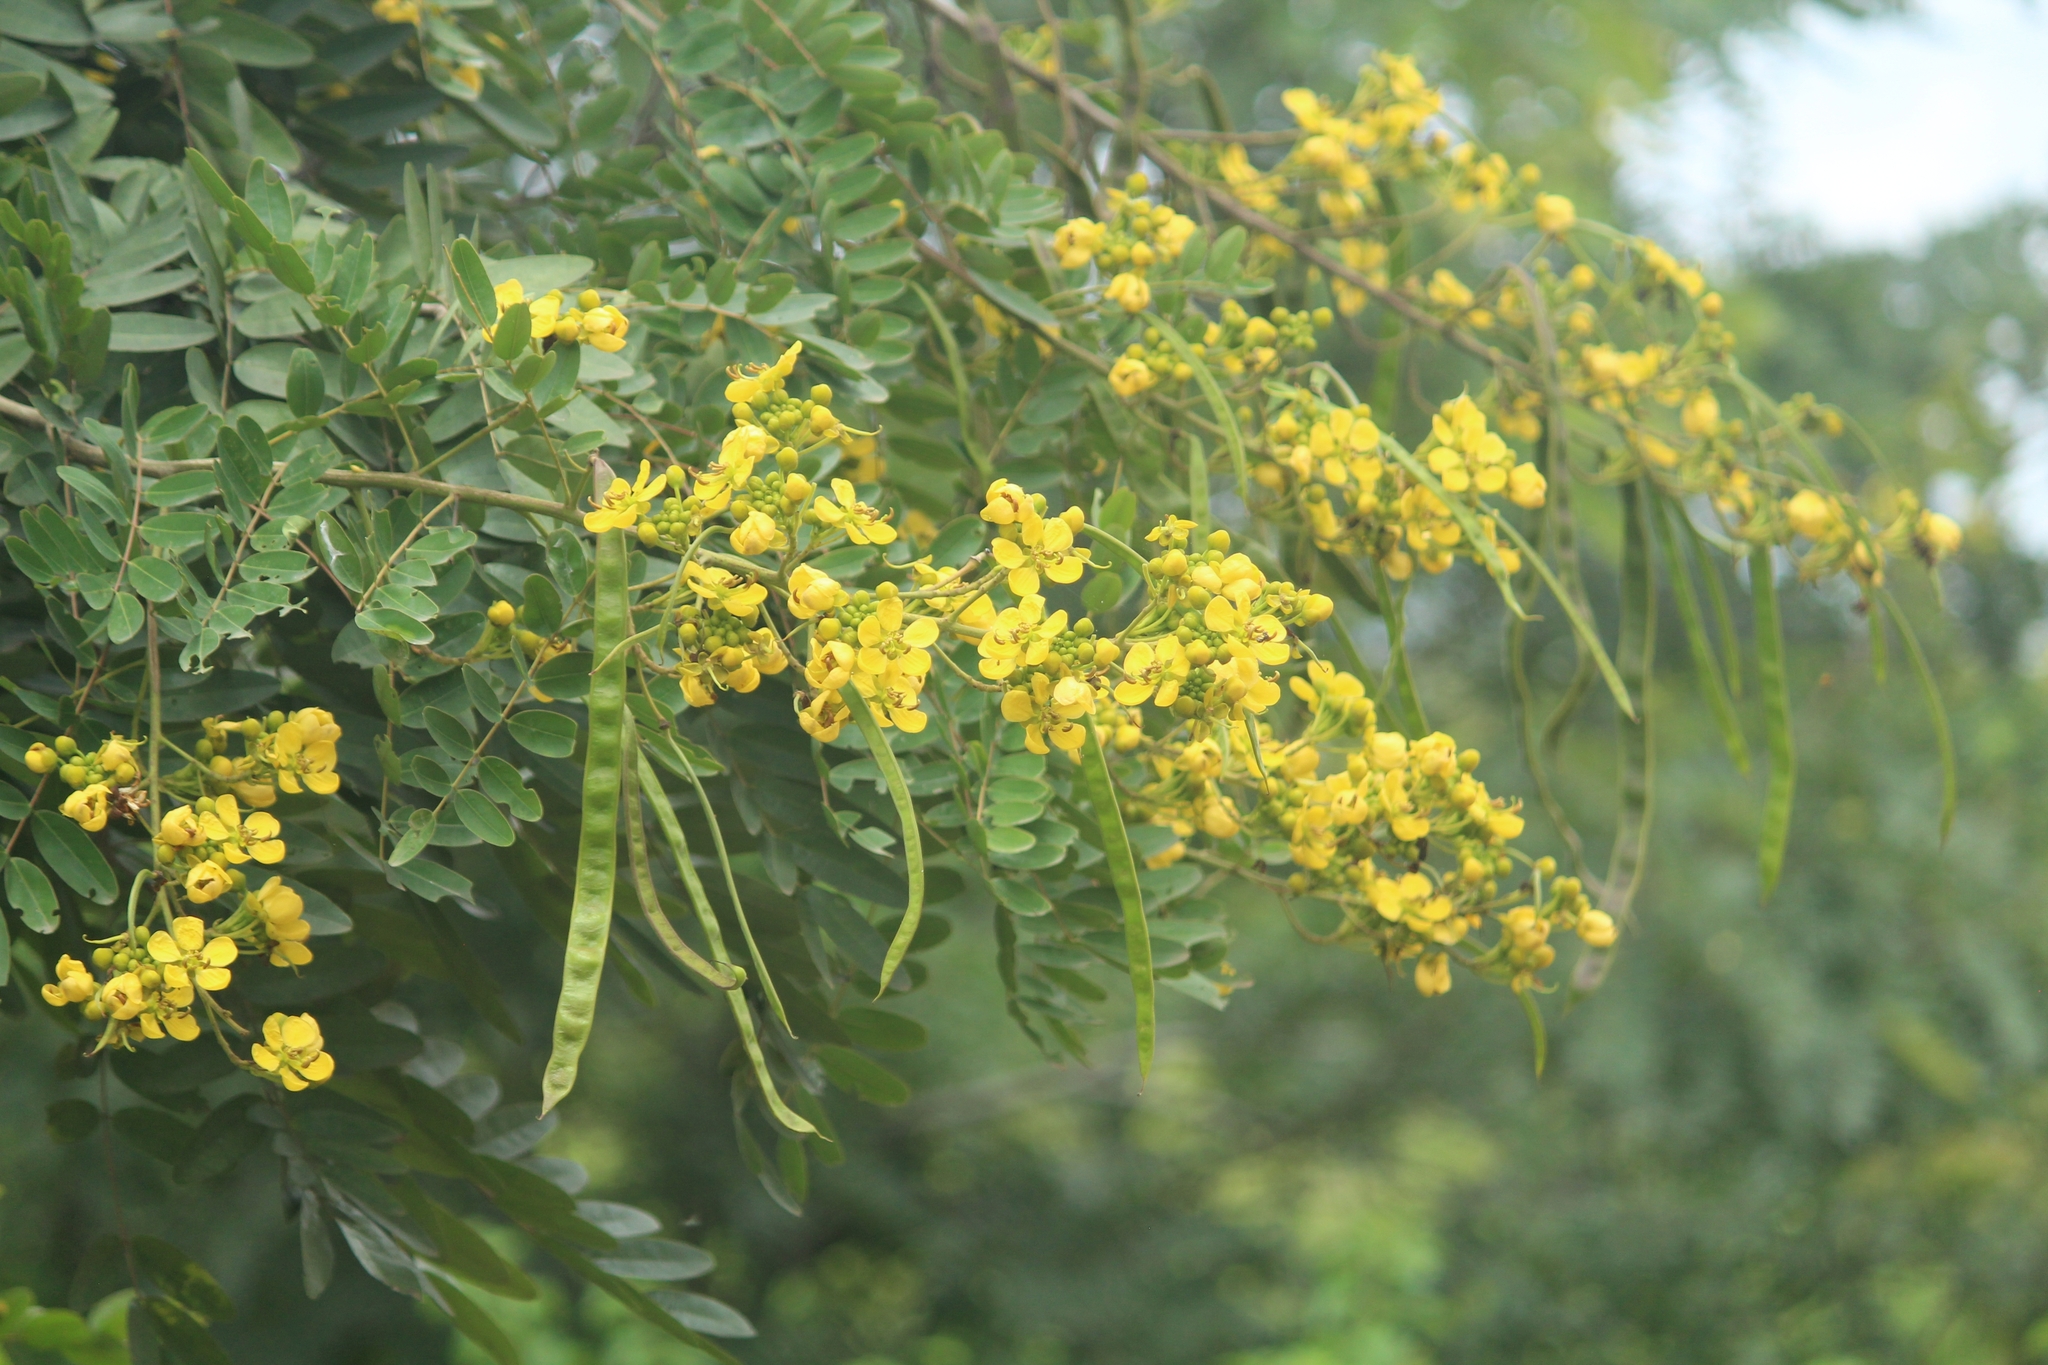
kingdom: Plantae
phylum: Tracheophyta
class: Magnoliopsida
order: Fabales
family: Fabaceae
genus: Senna
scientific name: Senna siamea
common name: Siamese cassia
